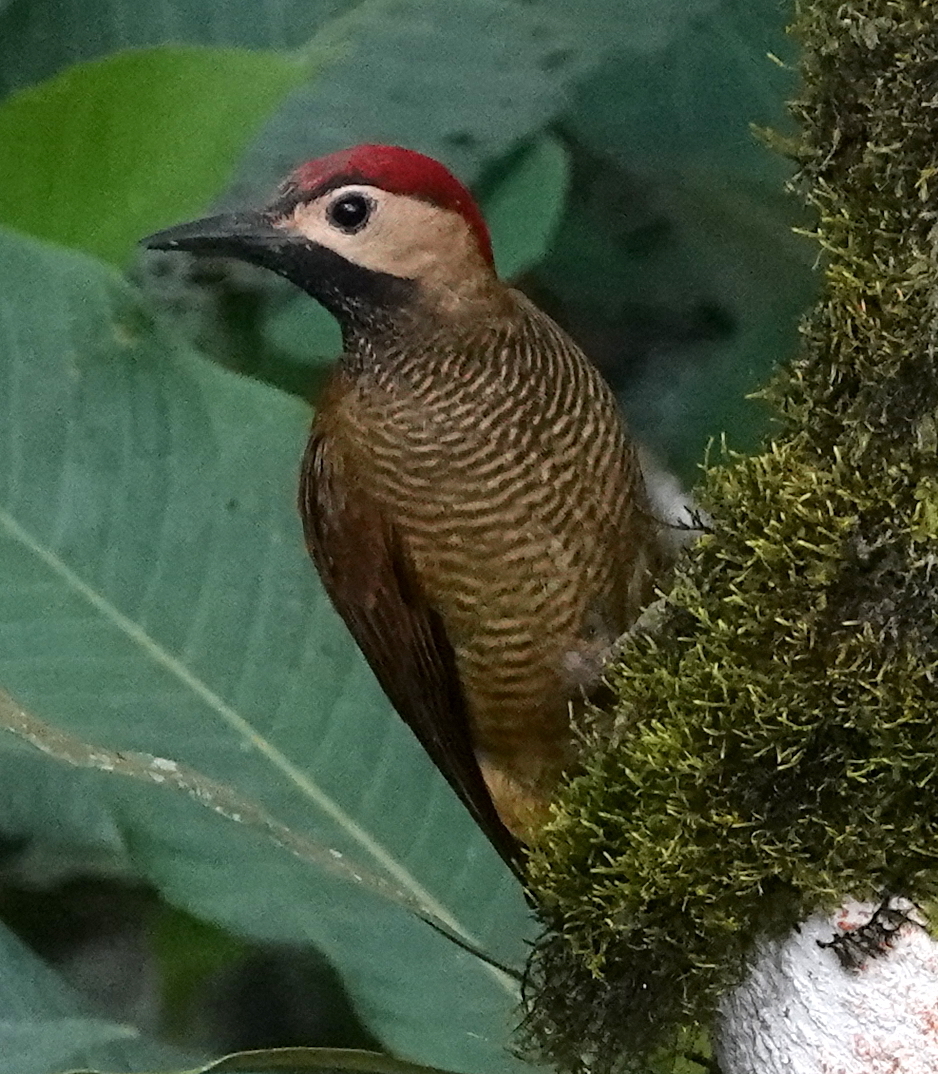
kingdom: Animalia
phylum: Chordata
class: Aves
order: Piciformes
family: Picidae
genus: Colaptes
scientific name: Colaptes rubiginosus
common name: Golden-olive woodpecker
